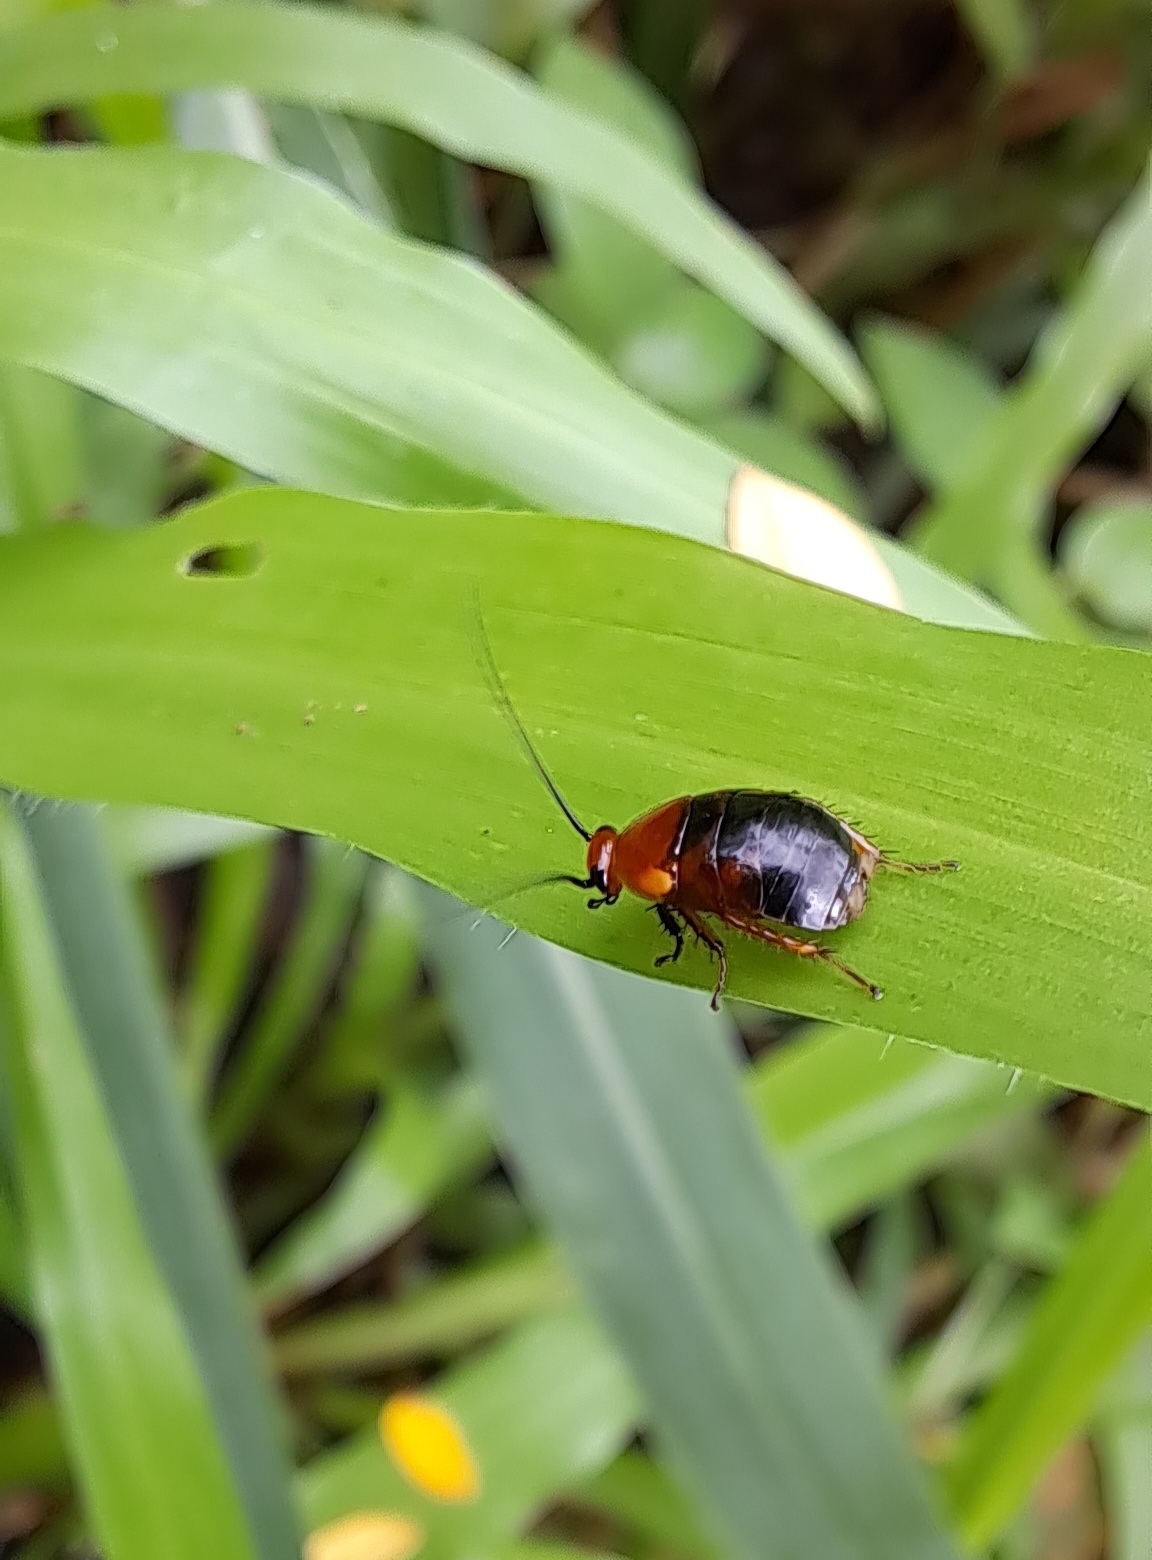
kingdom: Animalia
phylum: Arthropoda
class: Insecta
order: Blattodea
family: Ectobiidae
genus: Hemithyrsocera
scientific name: Hemithyrsocera palliata
